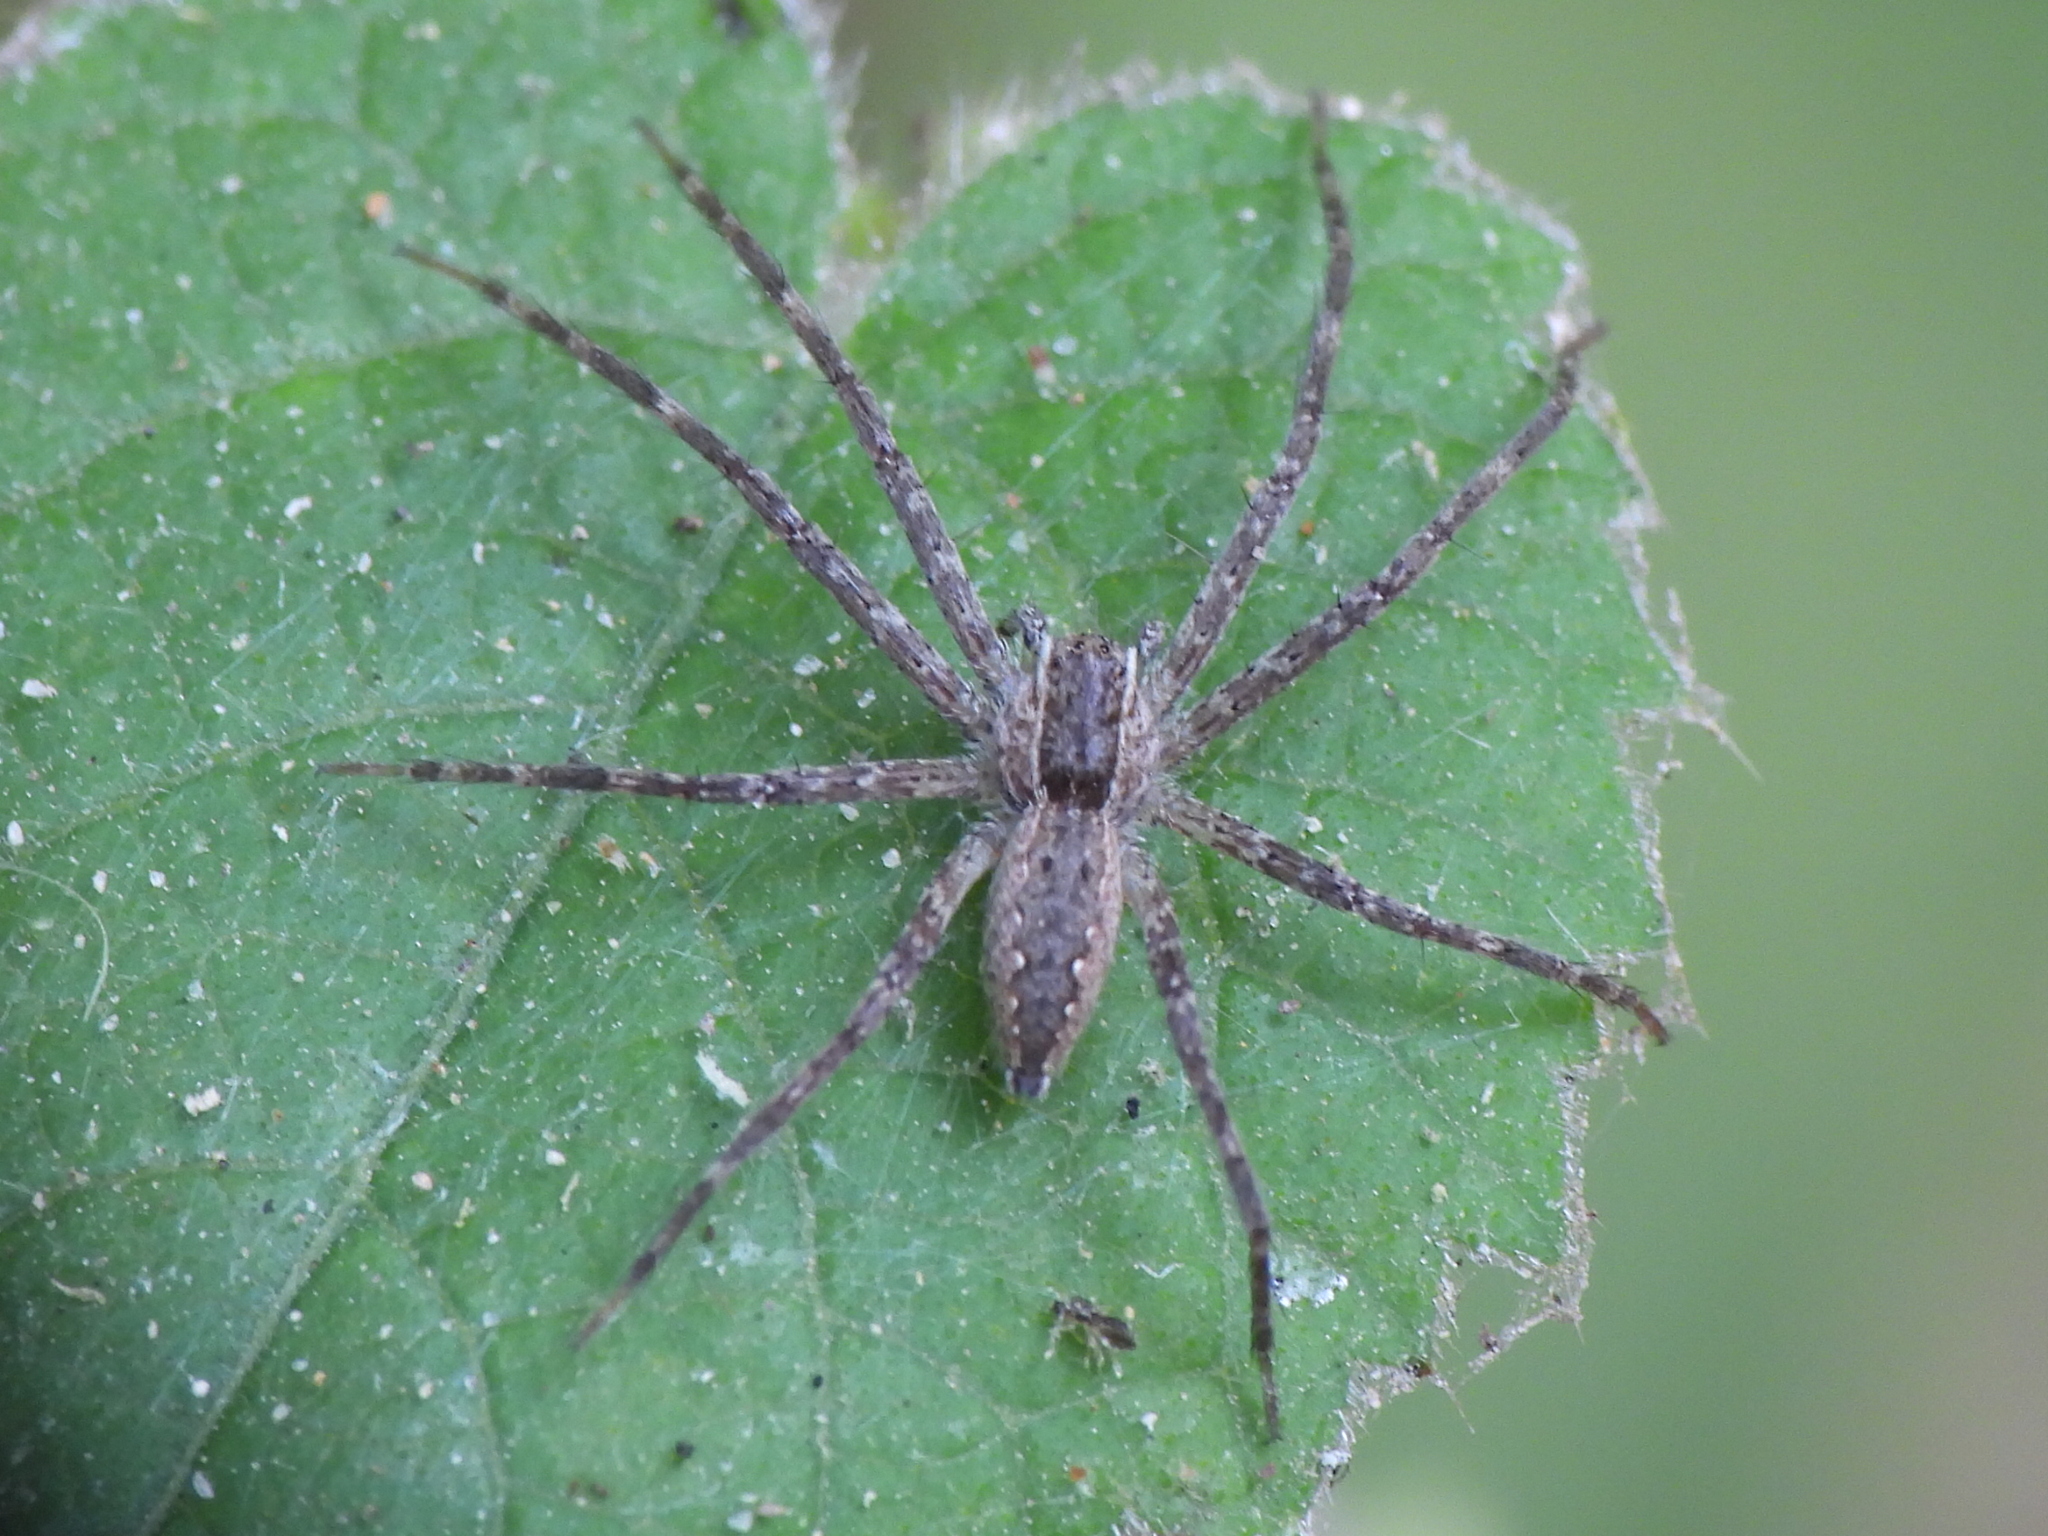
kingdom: Animalia
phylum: Arthropoda
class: Arachnida
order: Araneae
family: Pisauridae
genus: Pisaurina
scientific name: Pisaurina mira
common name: American nursery web spider
